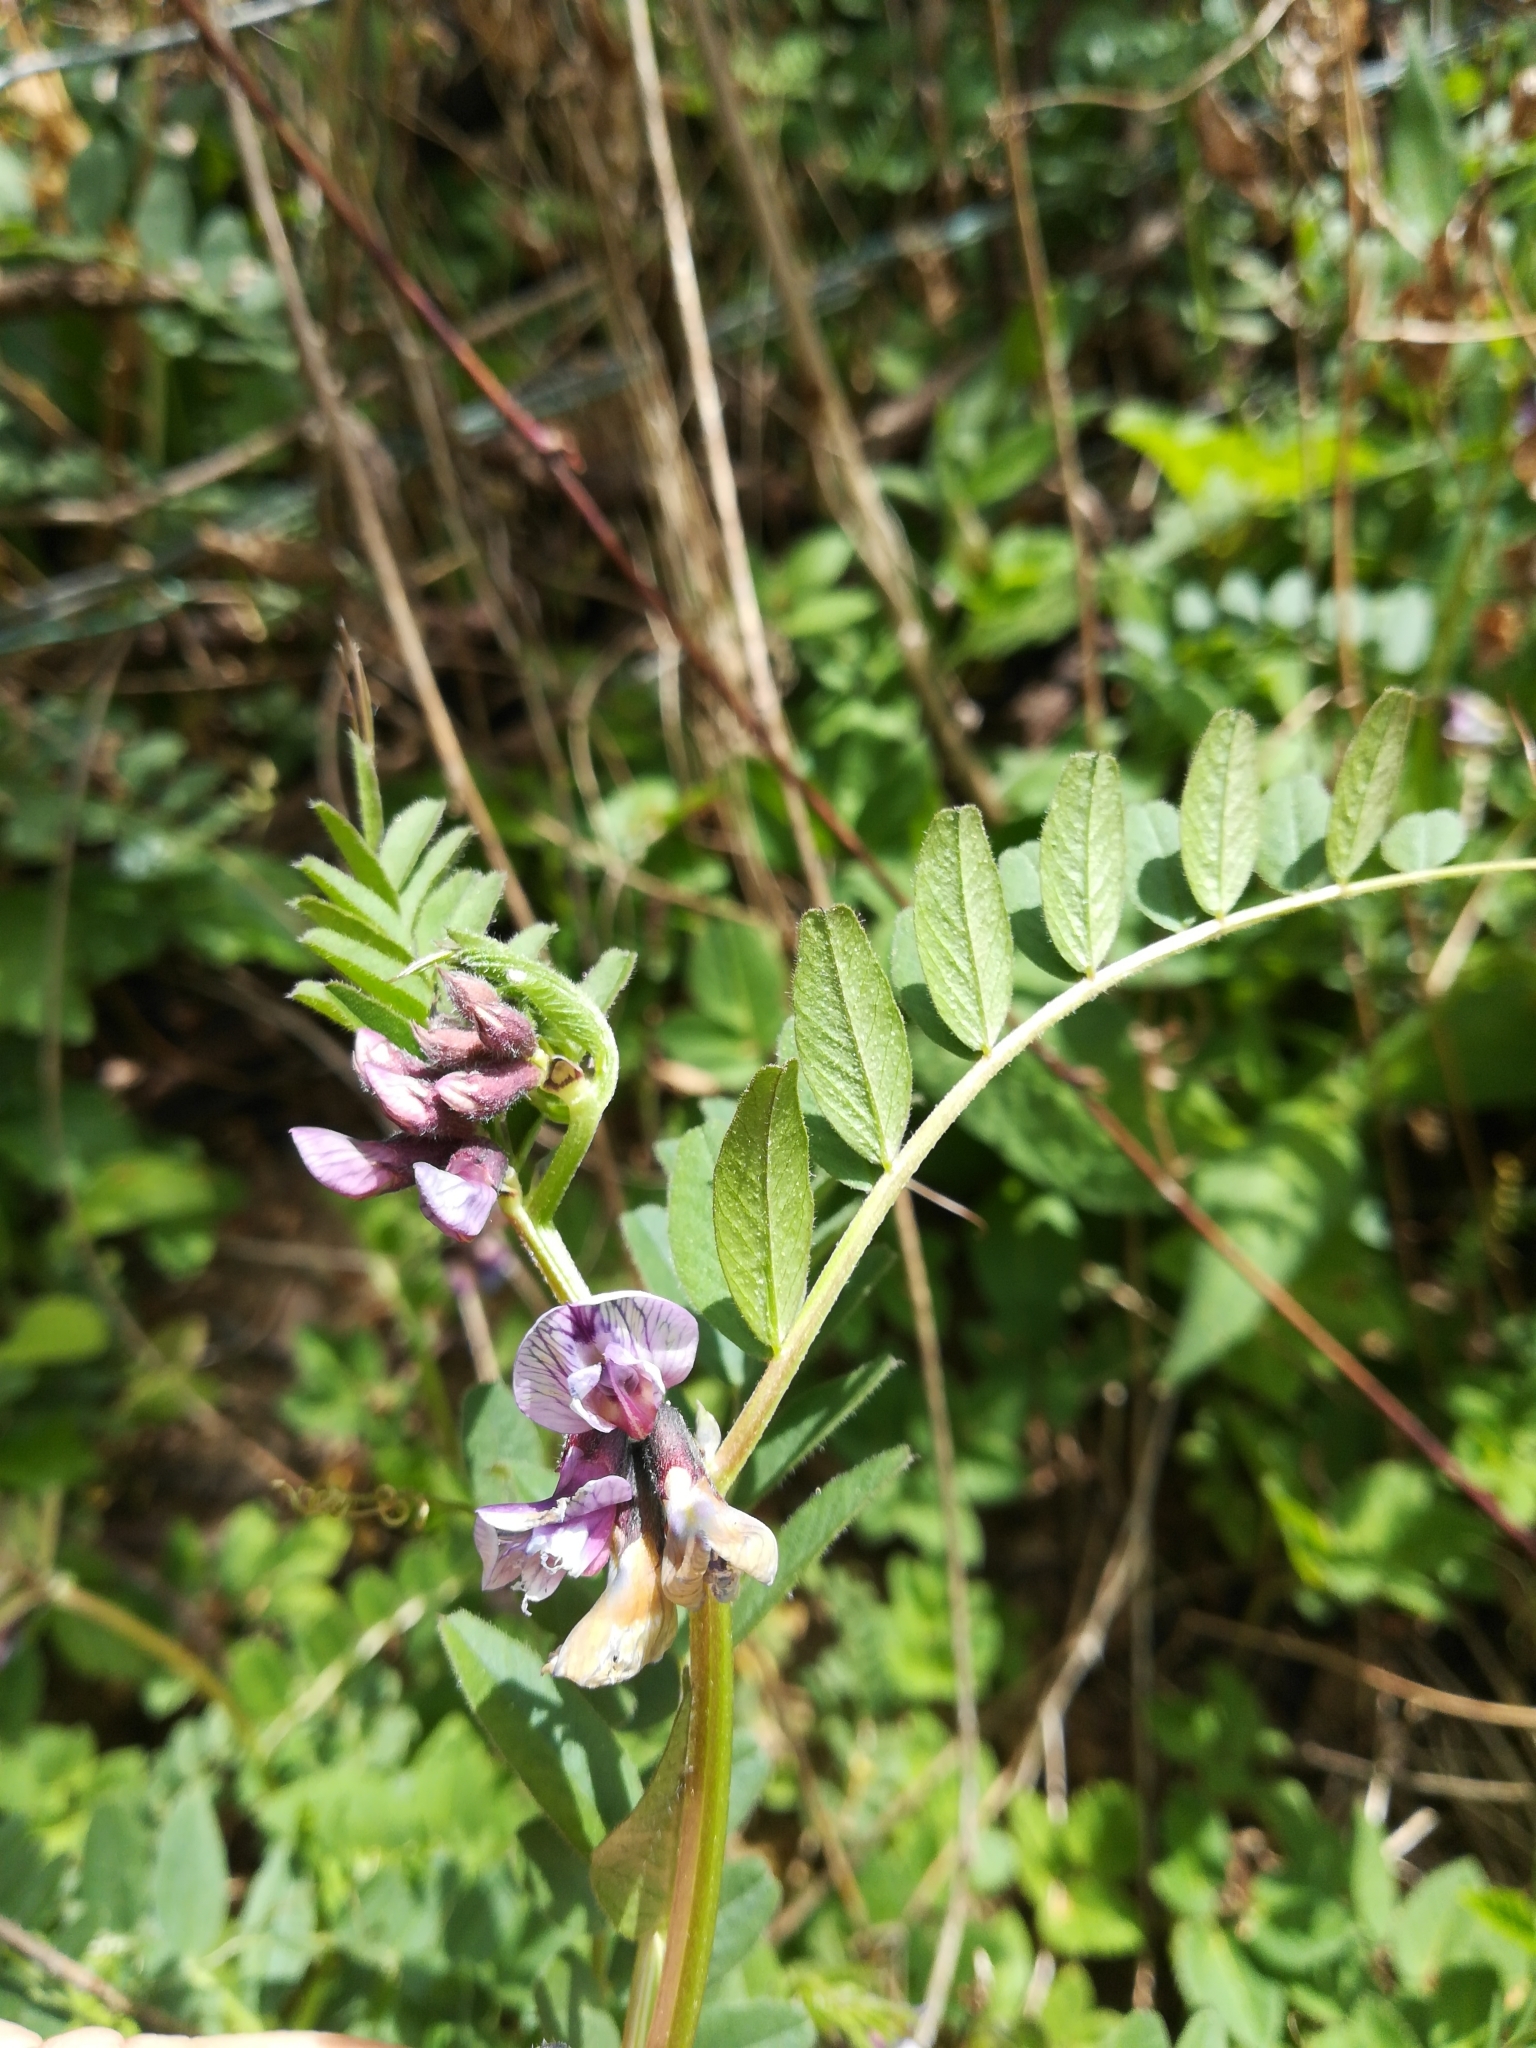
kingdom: Plantae
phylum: Tracheophyta
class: Magnoliopsida
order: Fabales
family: Fabaceae
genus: Vicia
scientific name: Vicia sepium
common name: Bush vetch
